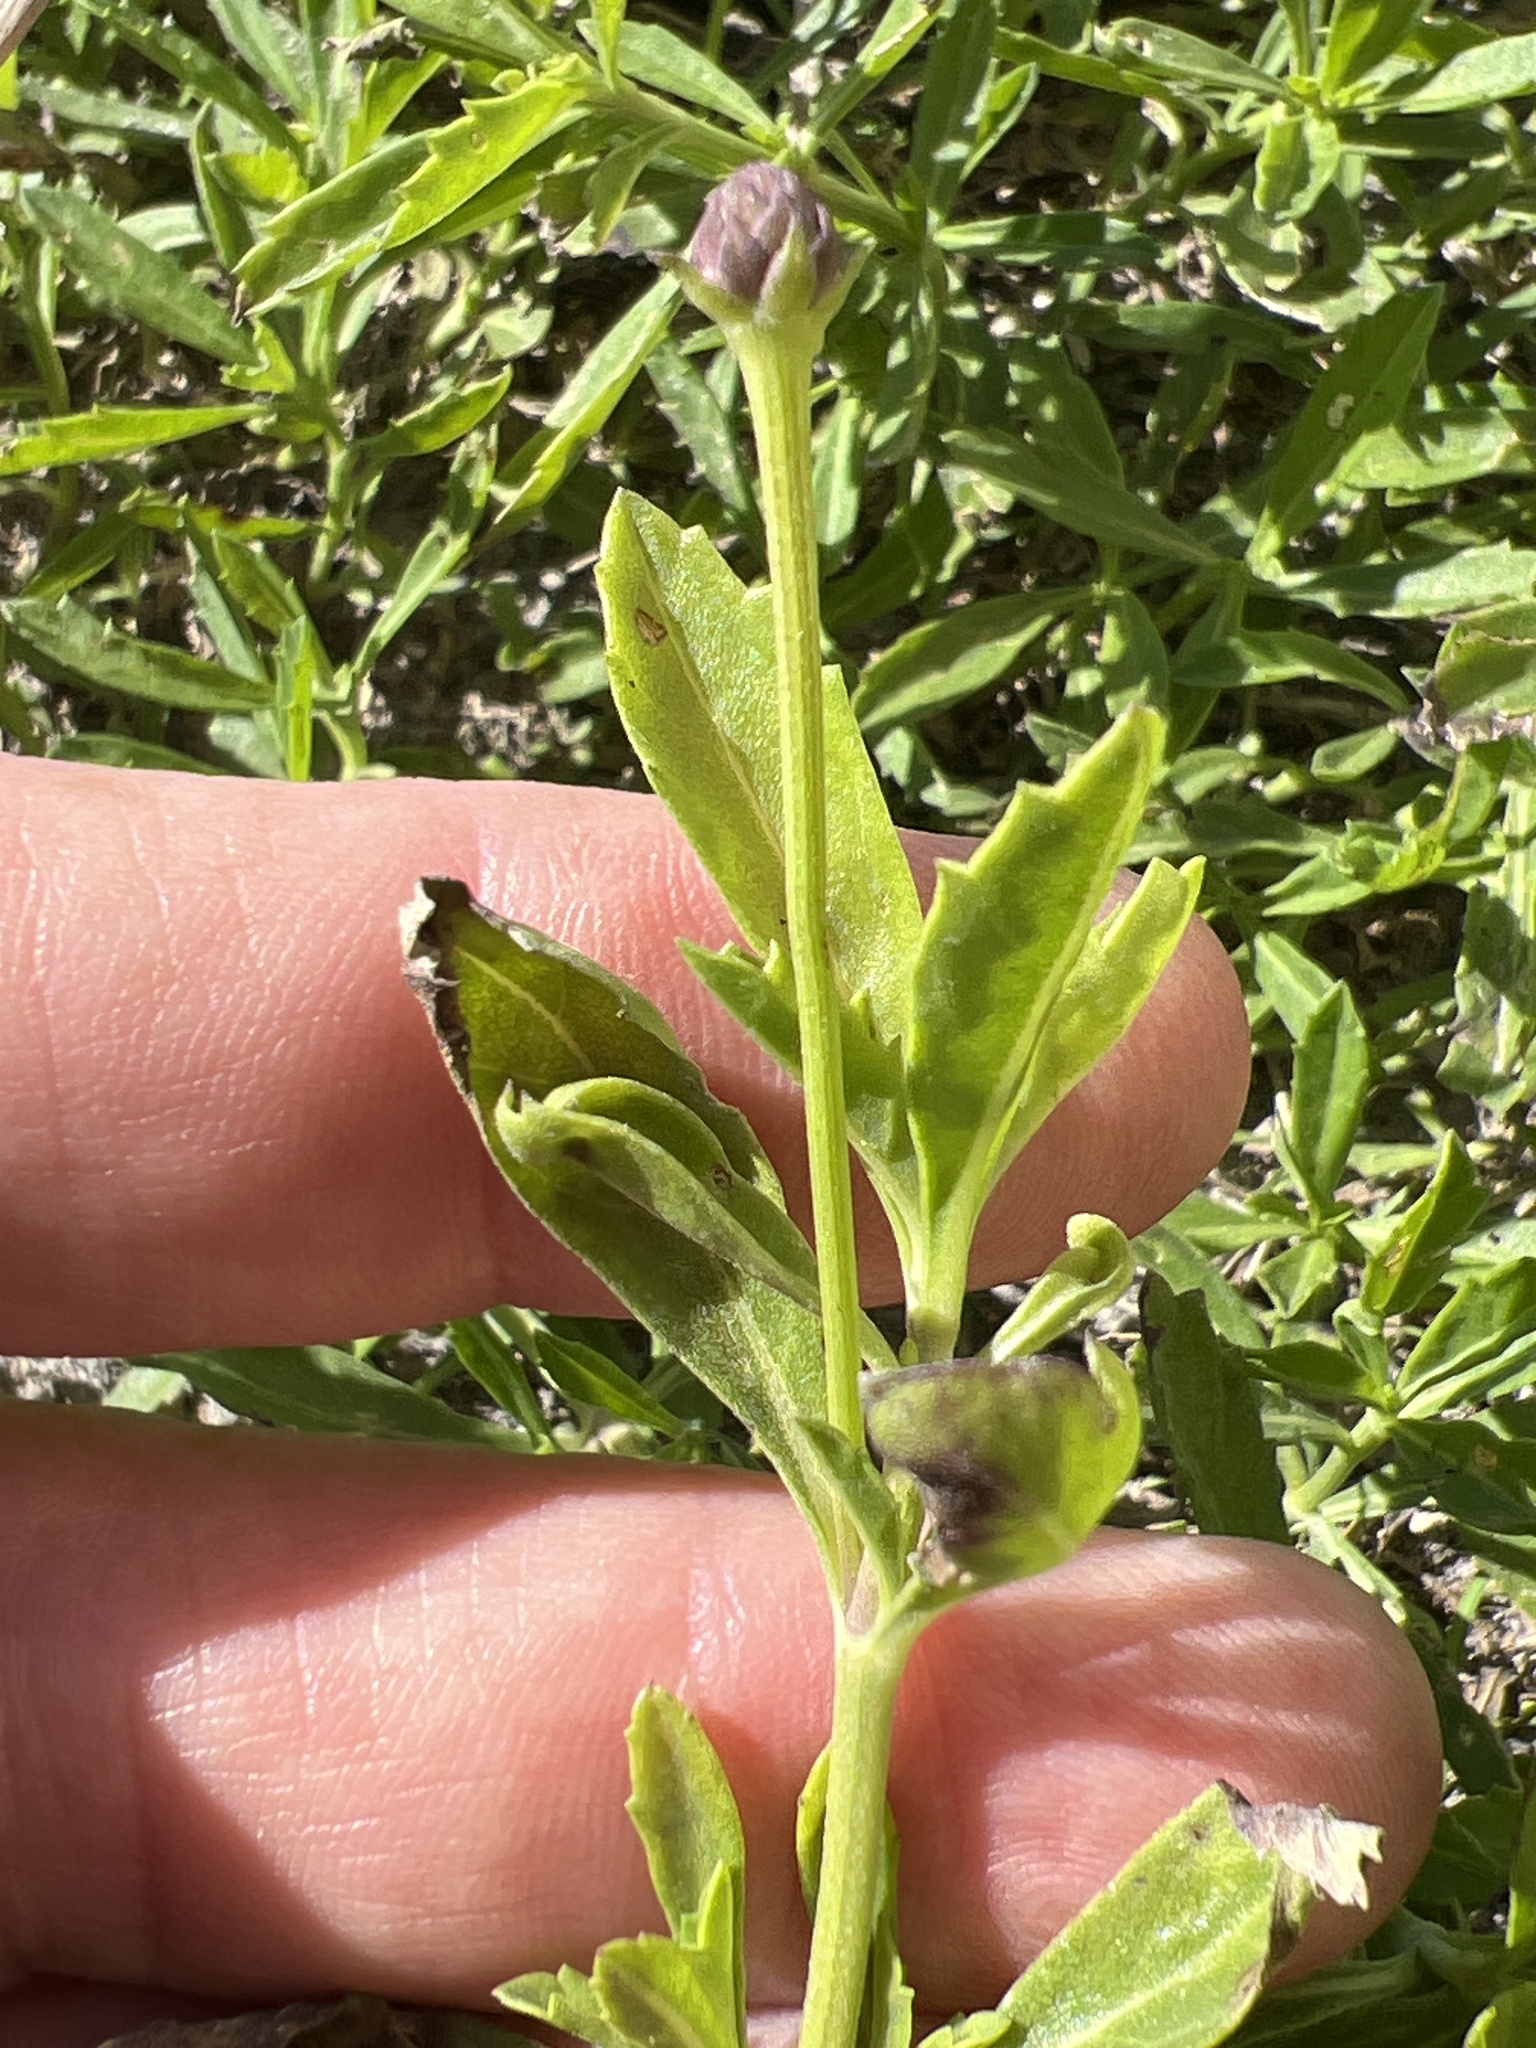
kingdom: Plantae
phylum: Tracheophyta
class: Magnoliopsida
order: Lamiales
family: Verbenaceae
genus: Phyla
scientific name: Phyla nodiflora
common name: Frogfruit
